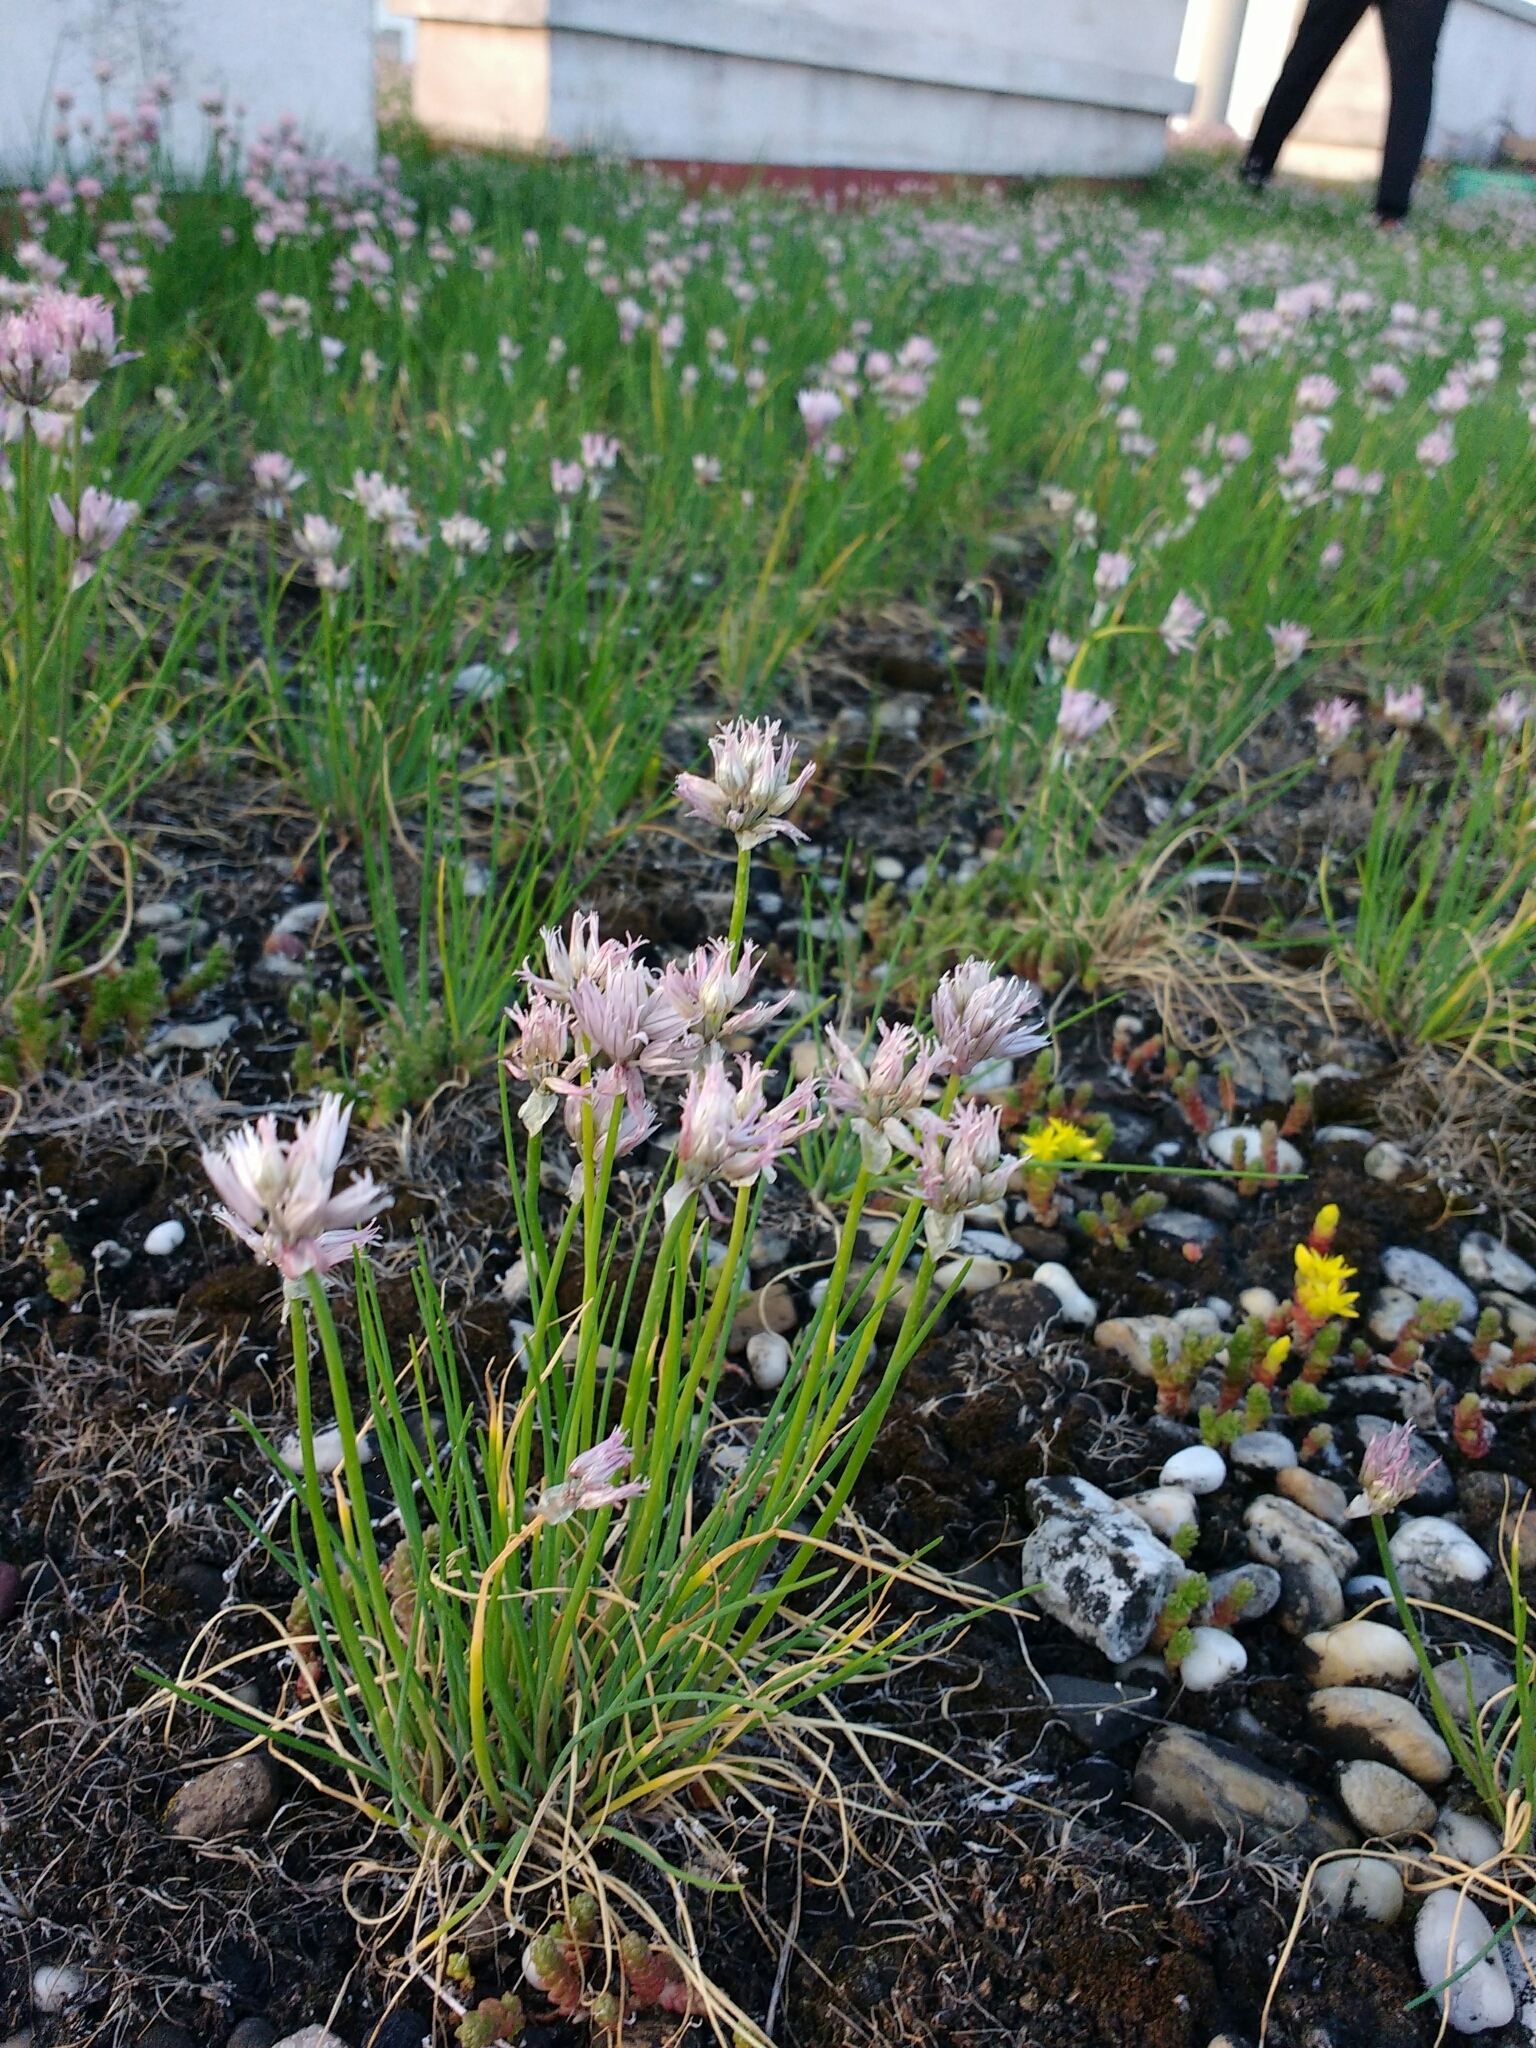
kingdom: Plantae
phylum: Tracheophyta
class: Liliopsida
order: Asparagales
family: Amaryllidaceae
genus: Allium
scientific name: Allium schoenoprasum
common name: Chives
